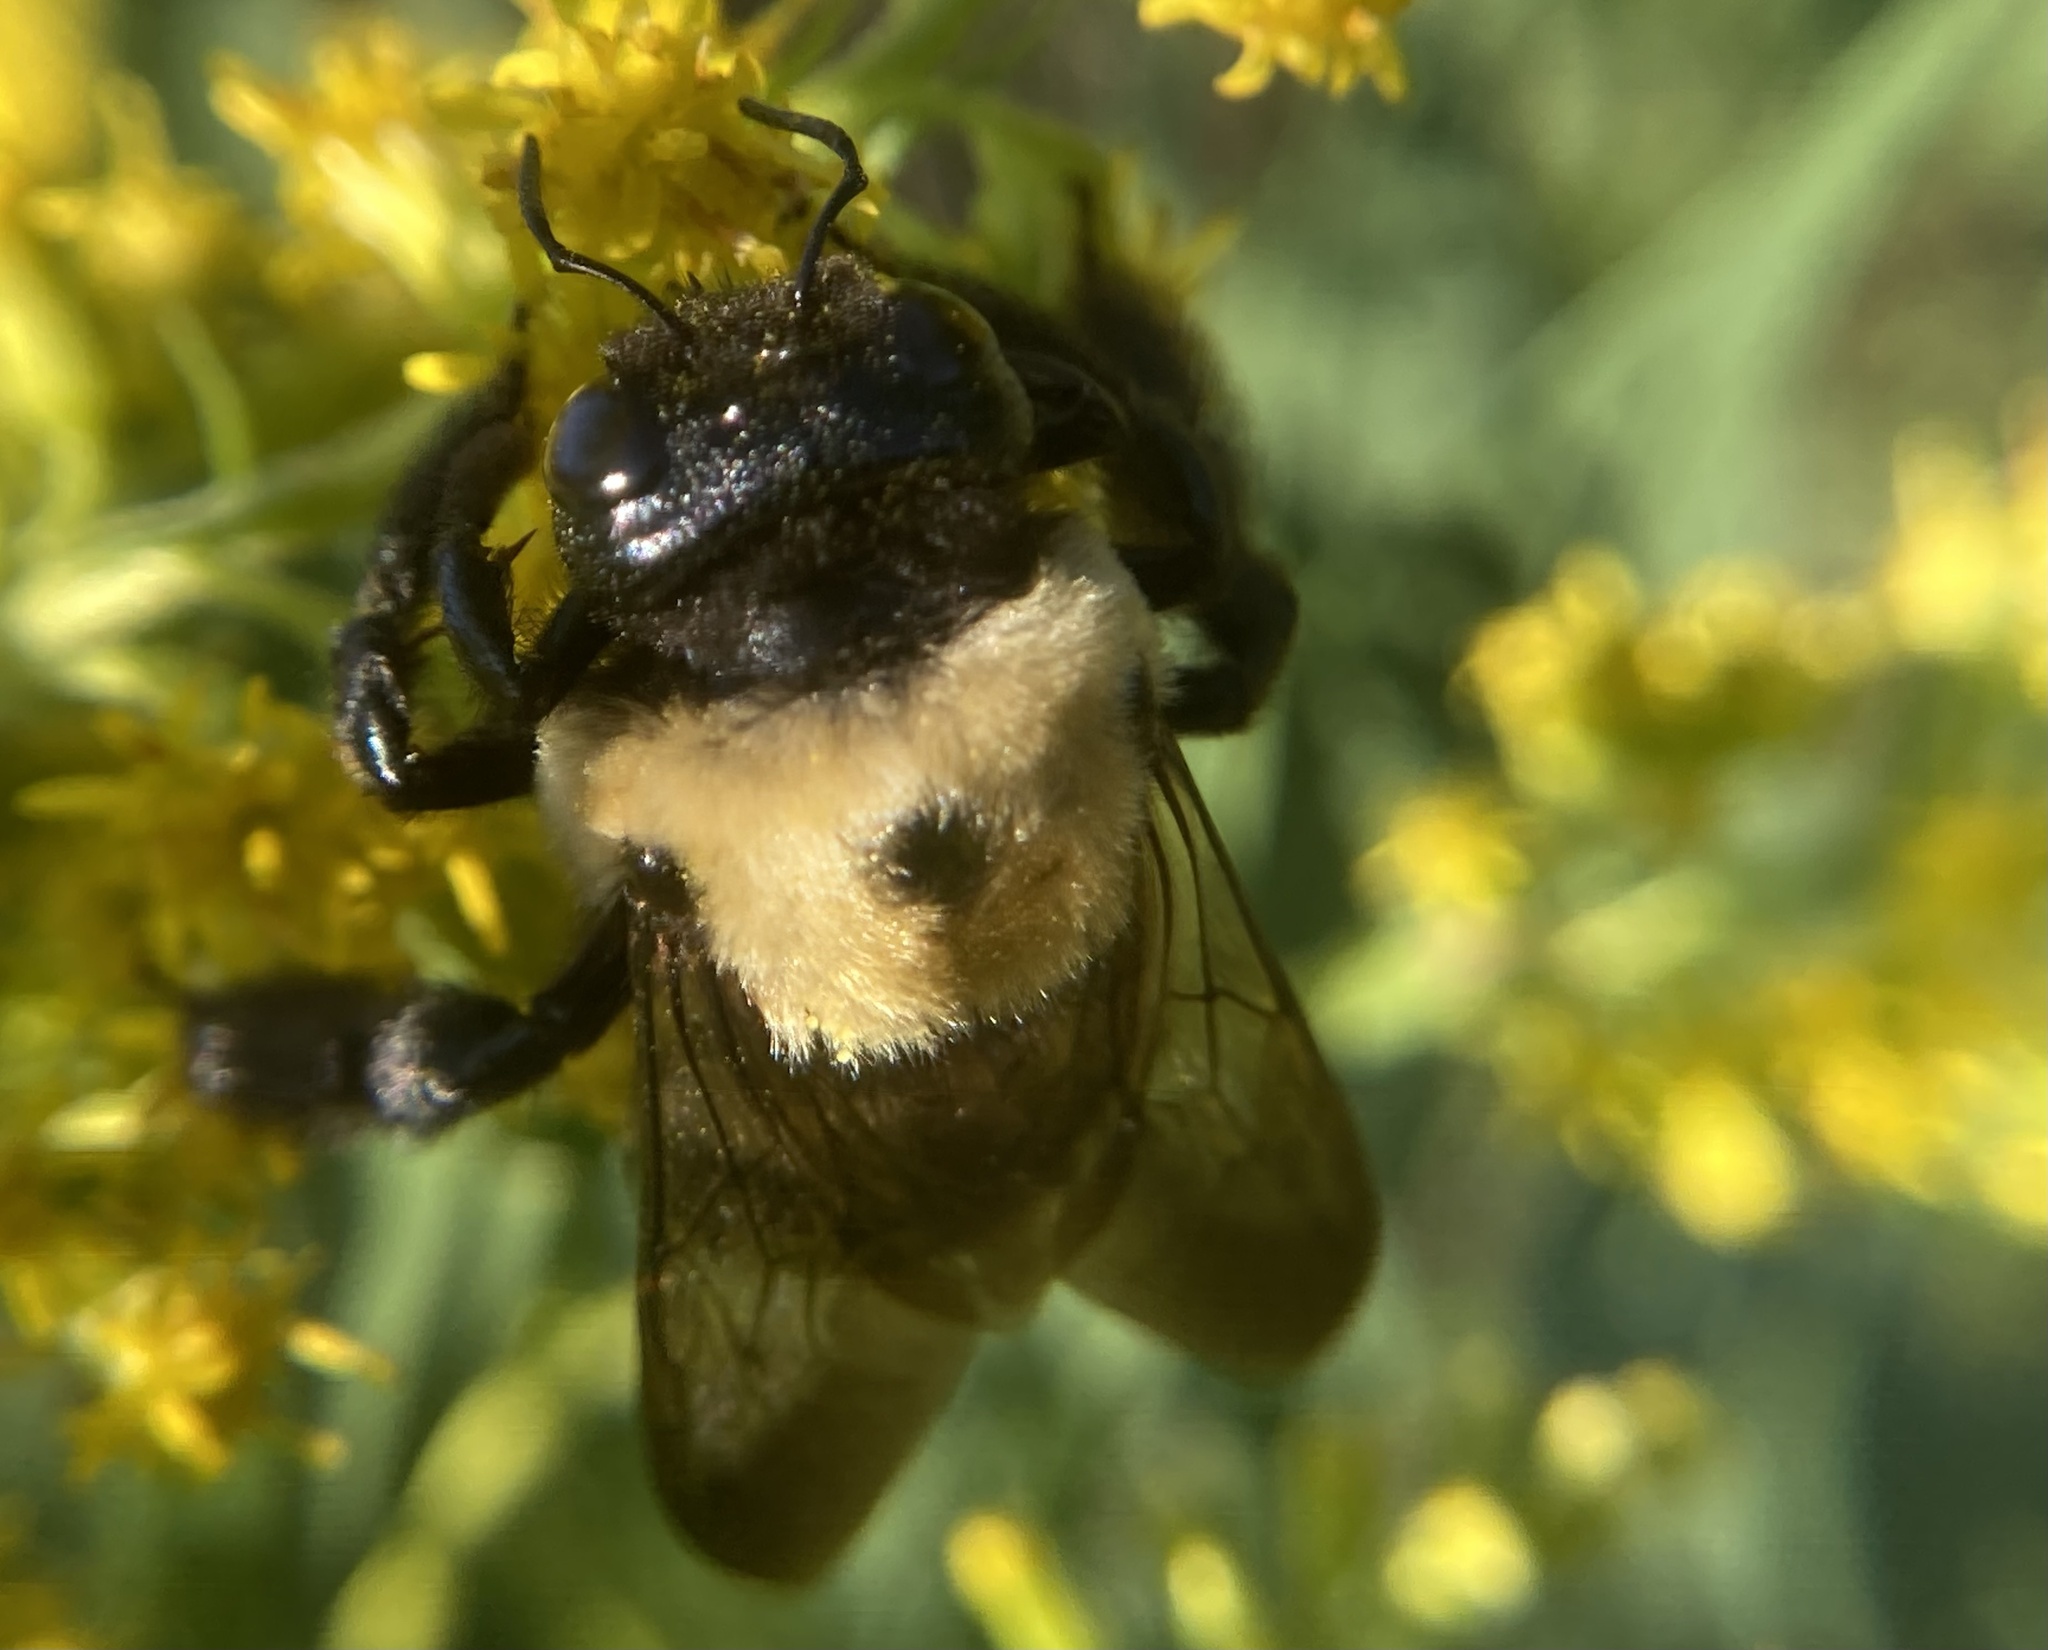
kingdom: Animalia
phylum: Arthropoda
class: Insecta
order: Hymenoptera
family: Apidae
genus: Xylocopa
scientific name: Xylocopa virginica
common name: Carpenter bee
